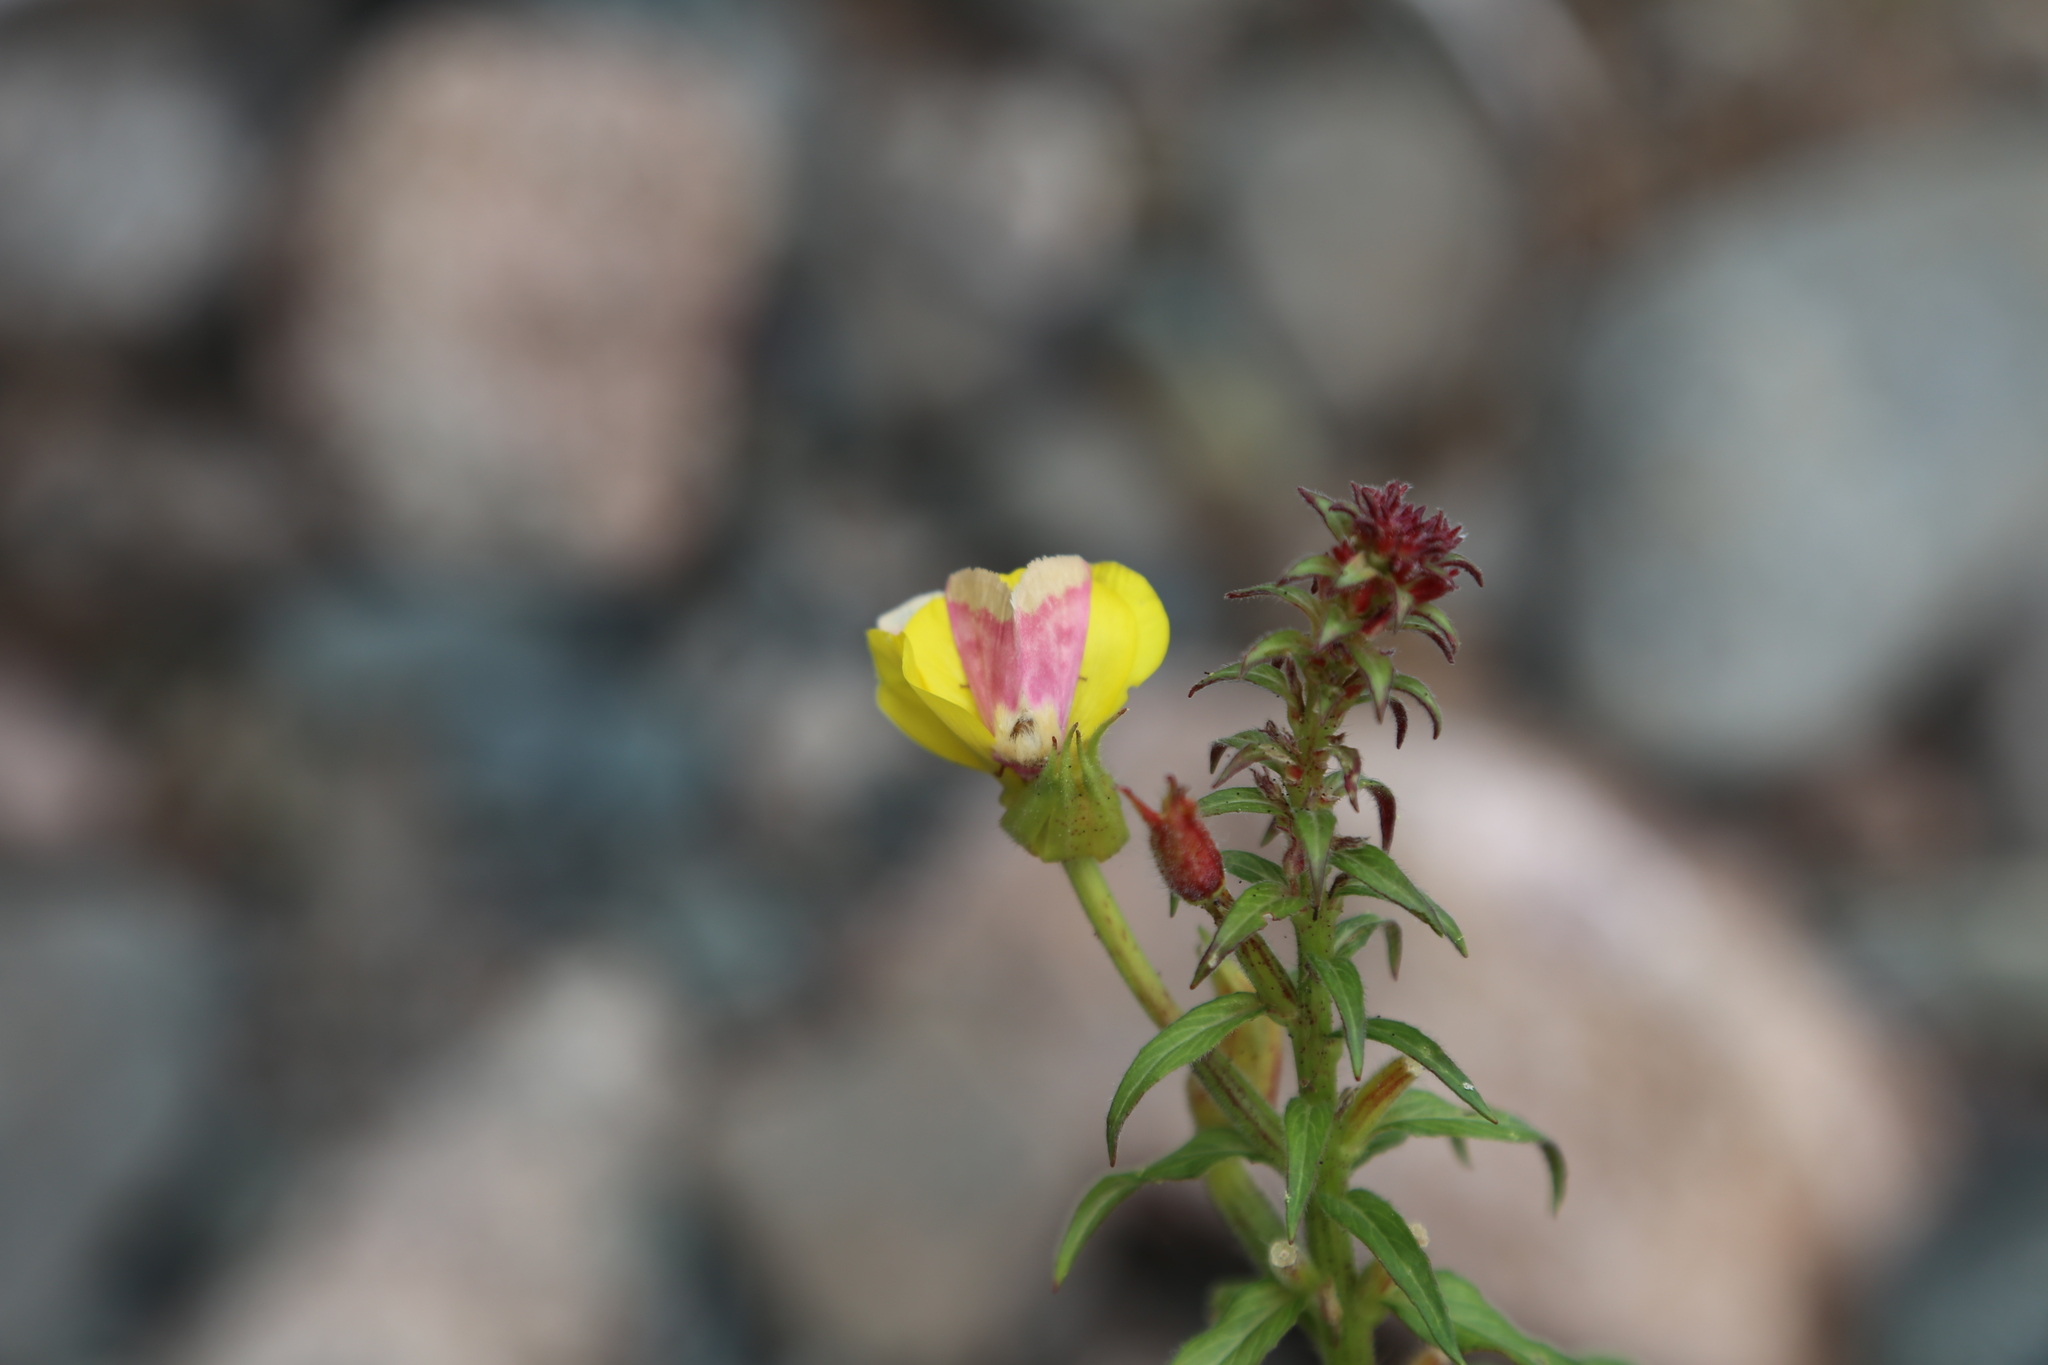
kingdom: Animalia
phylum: Arthropoda
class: Insecta
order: Lepidoptera
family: Noctuidae
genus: Schinia
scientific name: Schinia florida
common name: Primrose moth
